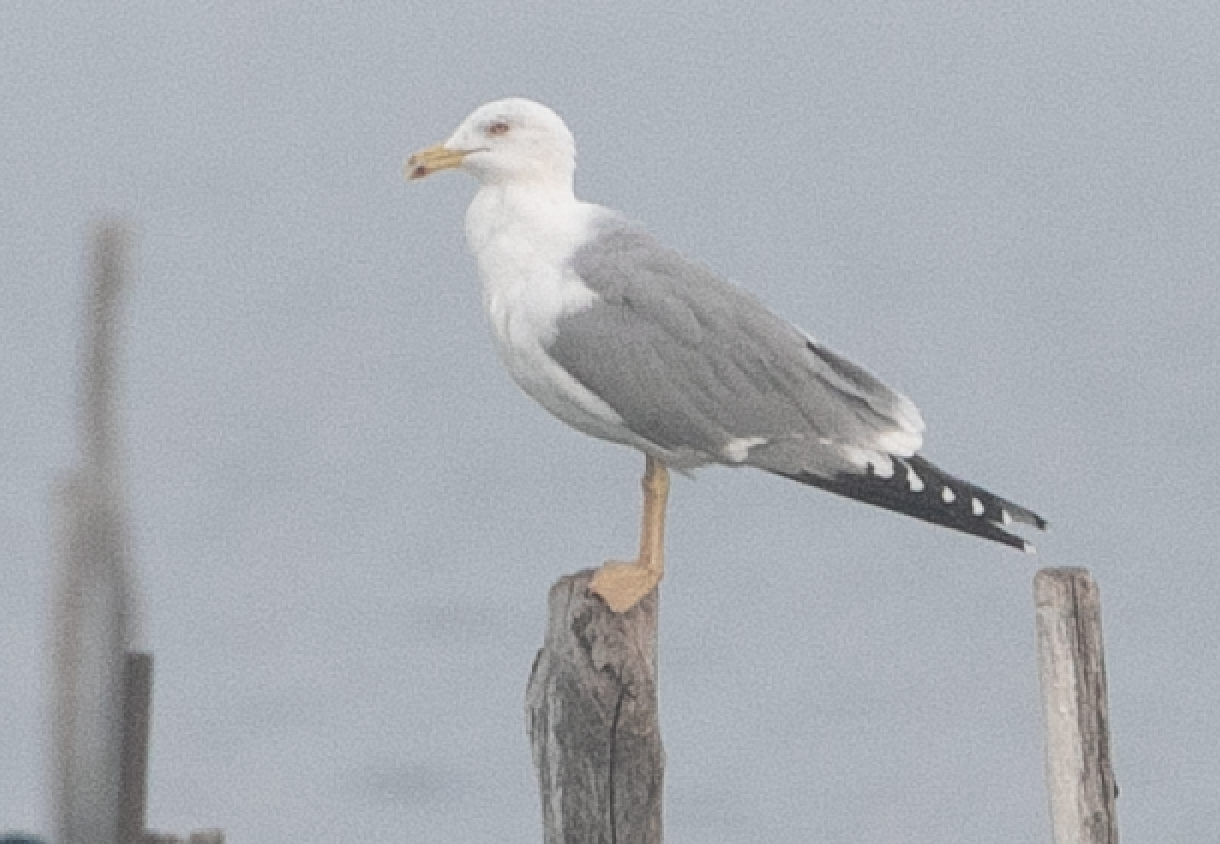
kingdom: Animalia
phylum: Chordata
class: Aves
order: Charadriiformes
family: Laridae
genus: Larus
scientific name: Larus michahellis
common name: Yellow-legged gull
